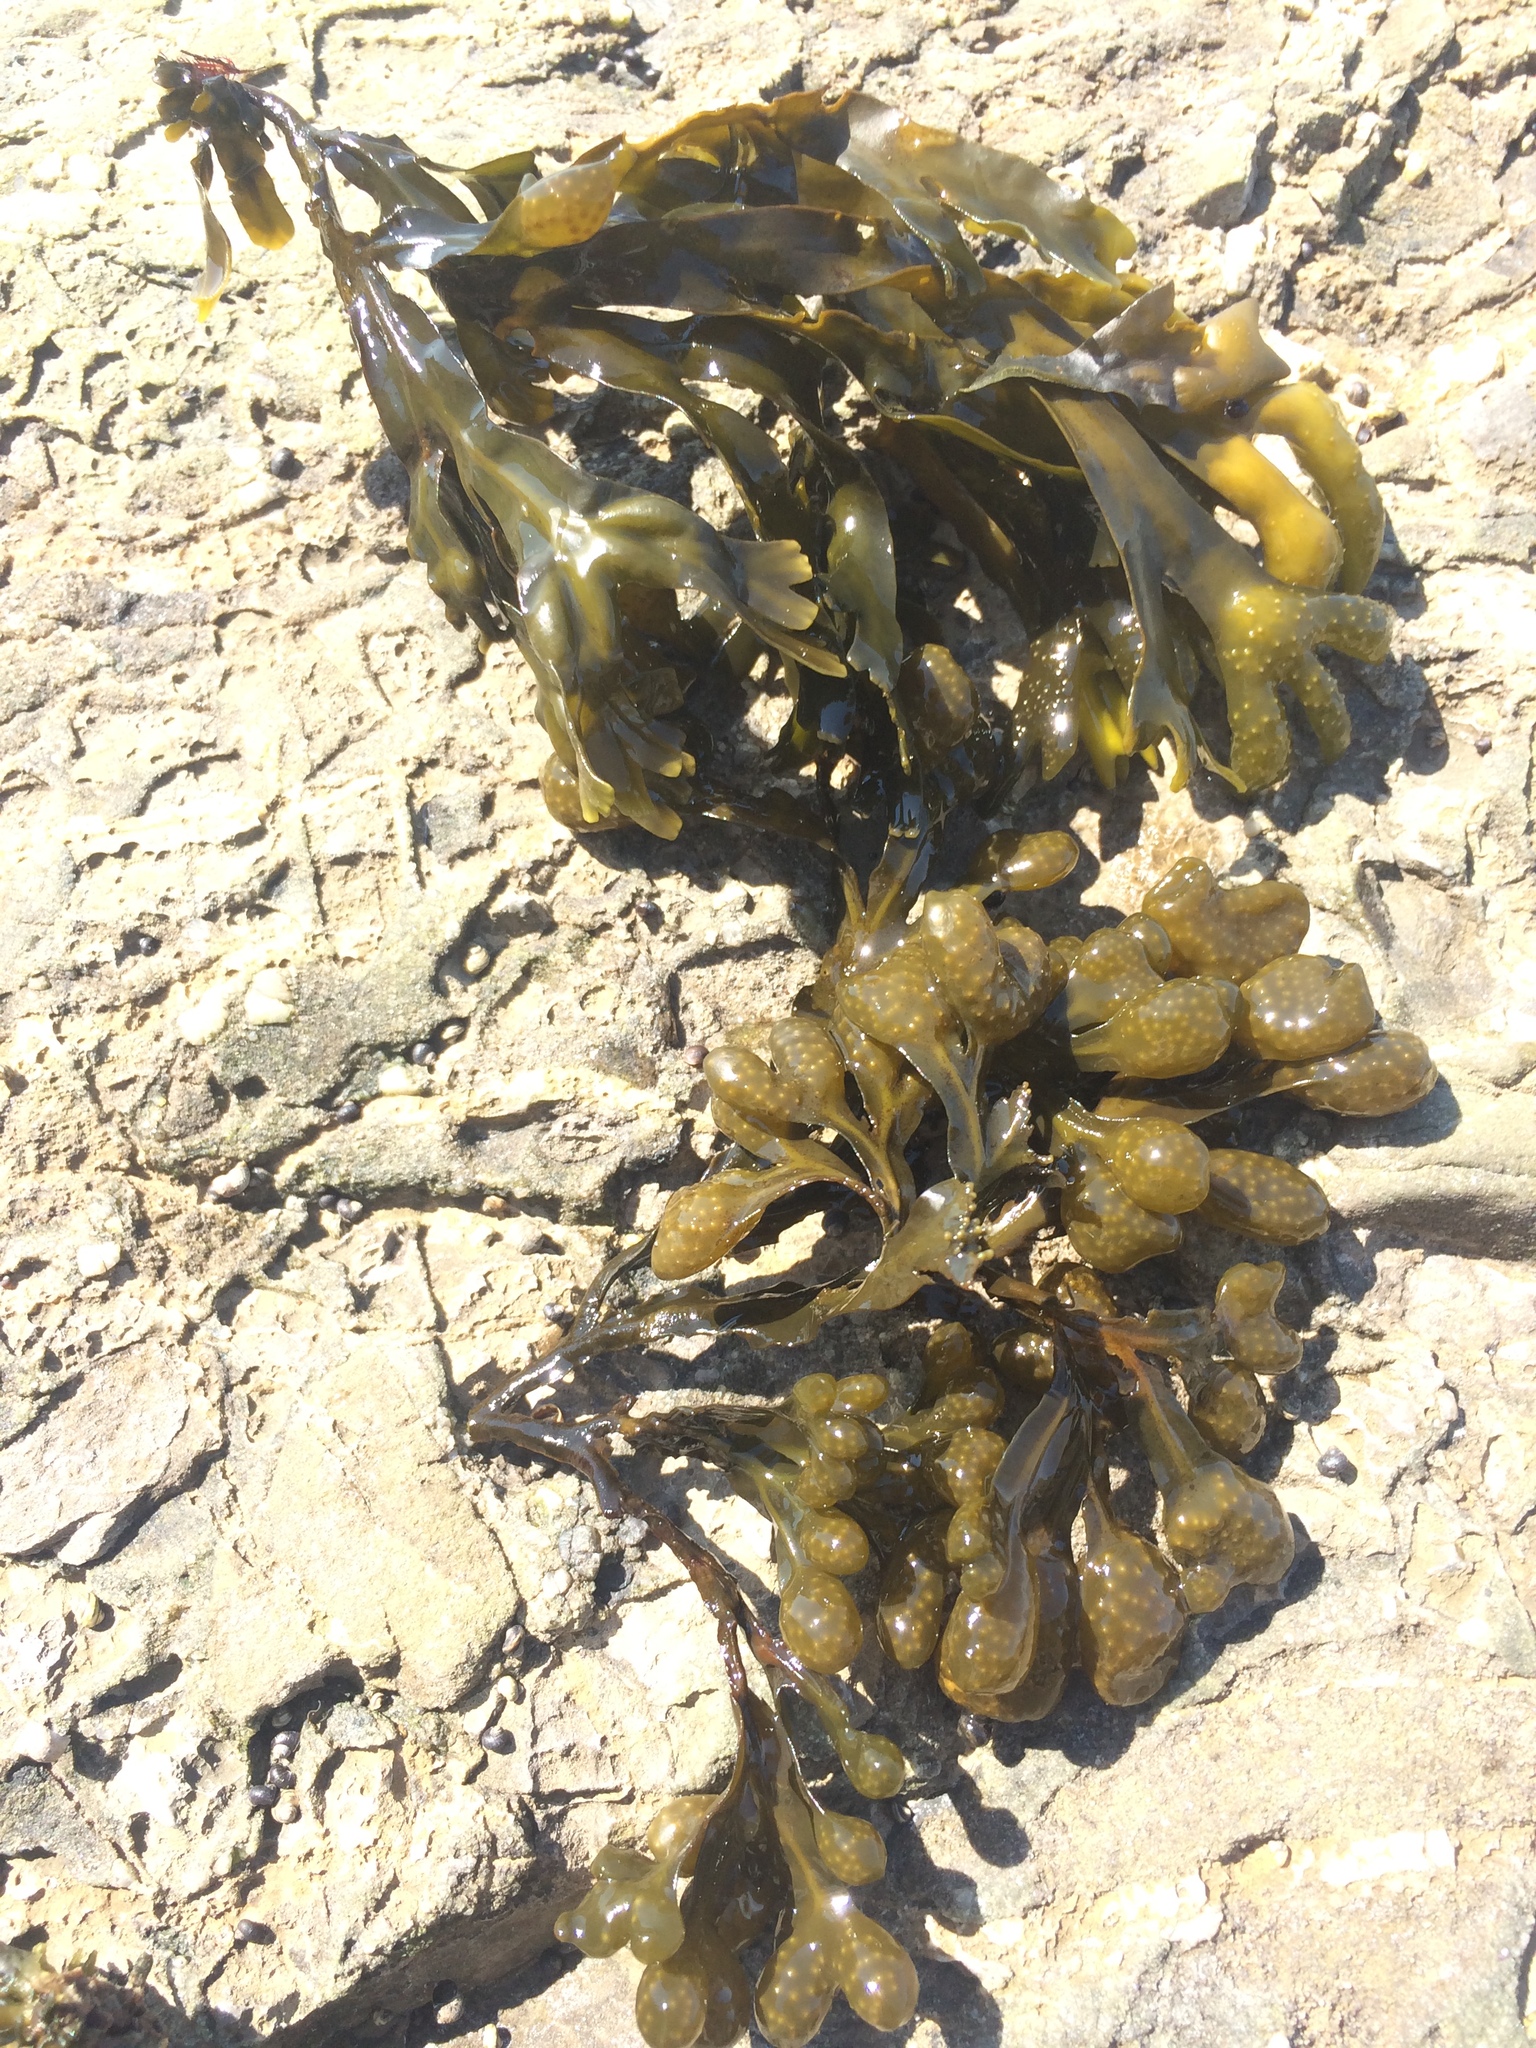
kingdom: Chromista
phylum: Ochrophyta
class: Phaeophyceae
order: Fucales
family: Fucaceae
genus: Fucus
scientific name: Fucus vesiculosus
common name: Bladder wrack
